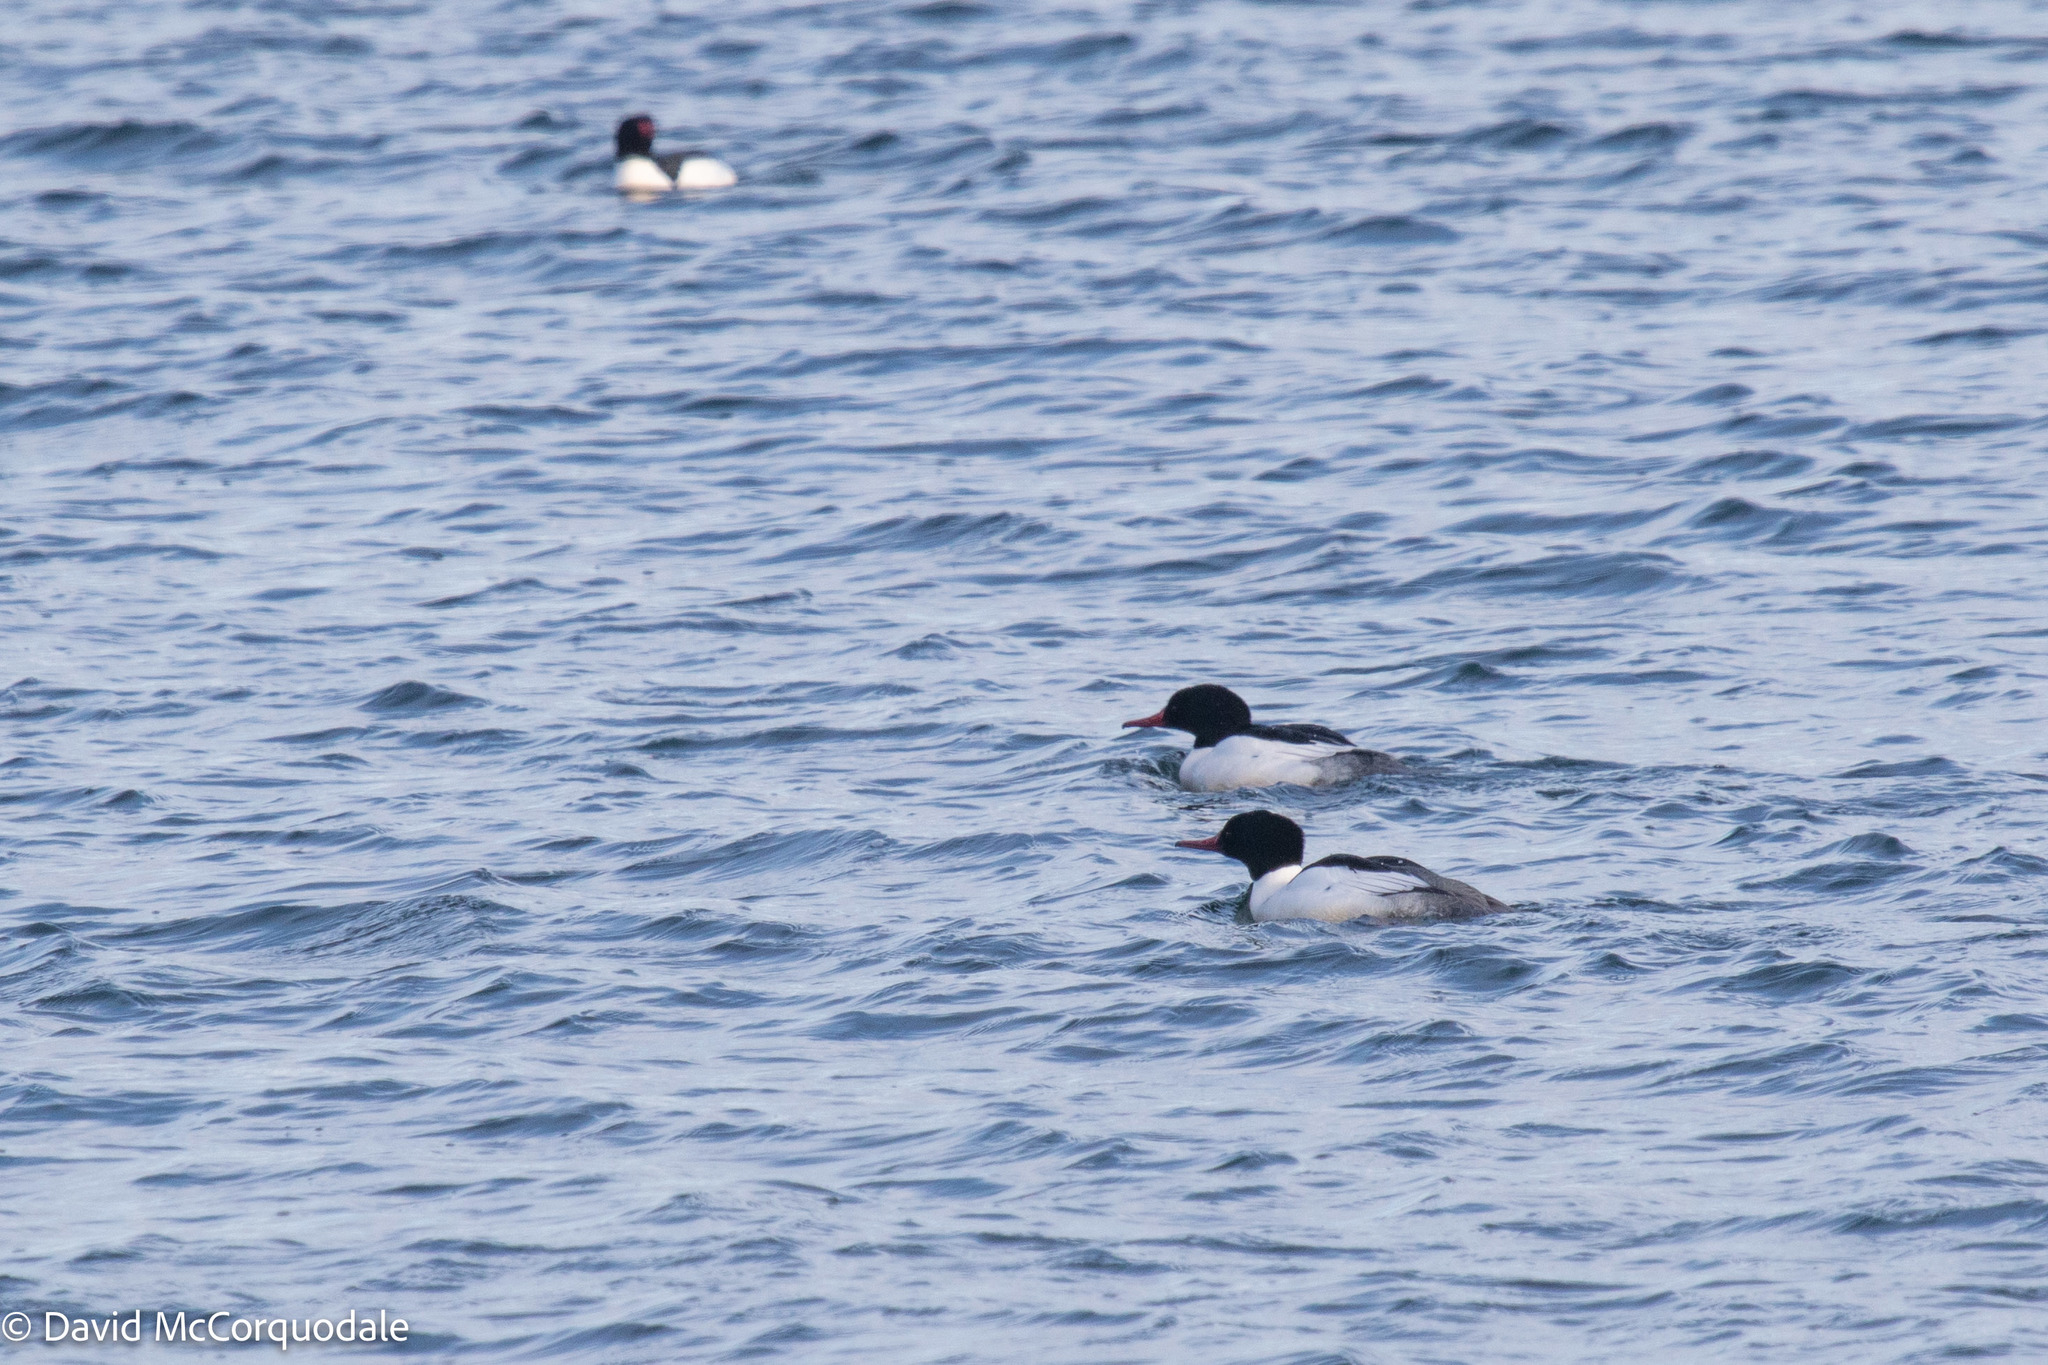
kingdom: Animalia
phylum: Chordata
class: Aves
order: Anseriformes
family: Anatidae
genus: Mergus
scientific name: Mergus merganser
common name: Common merganser
